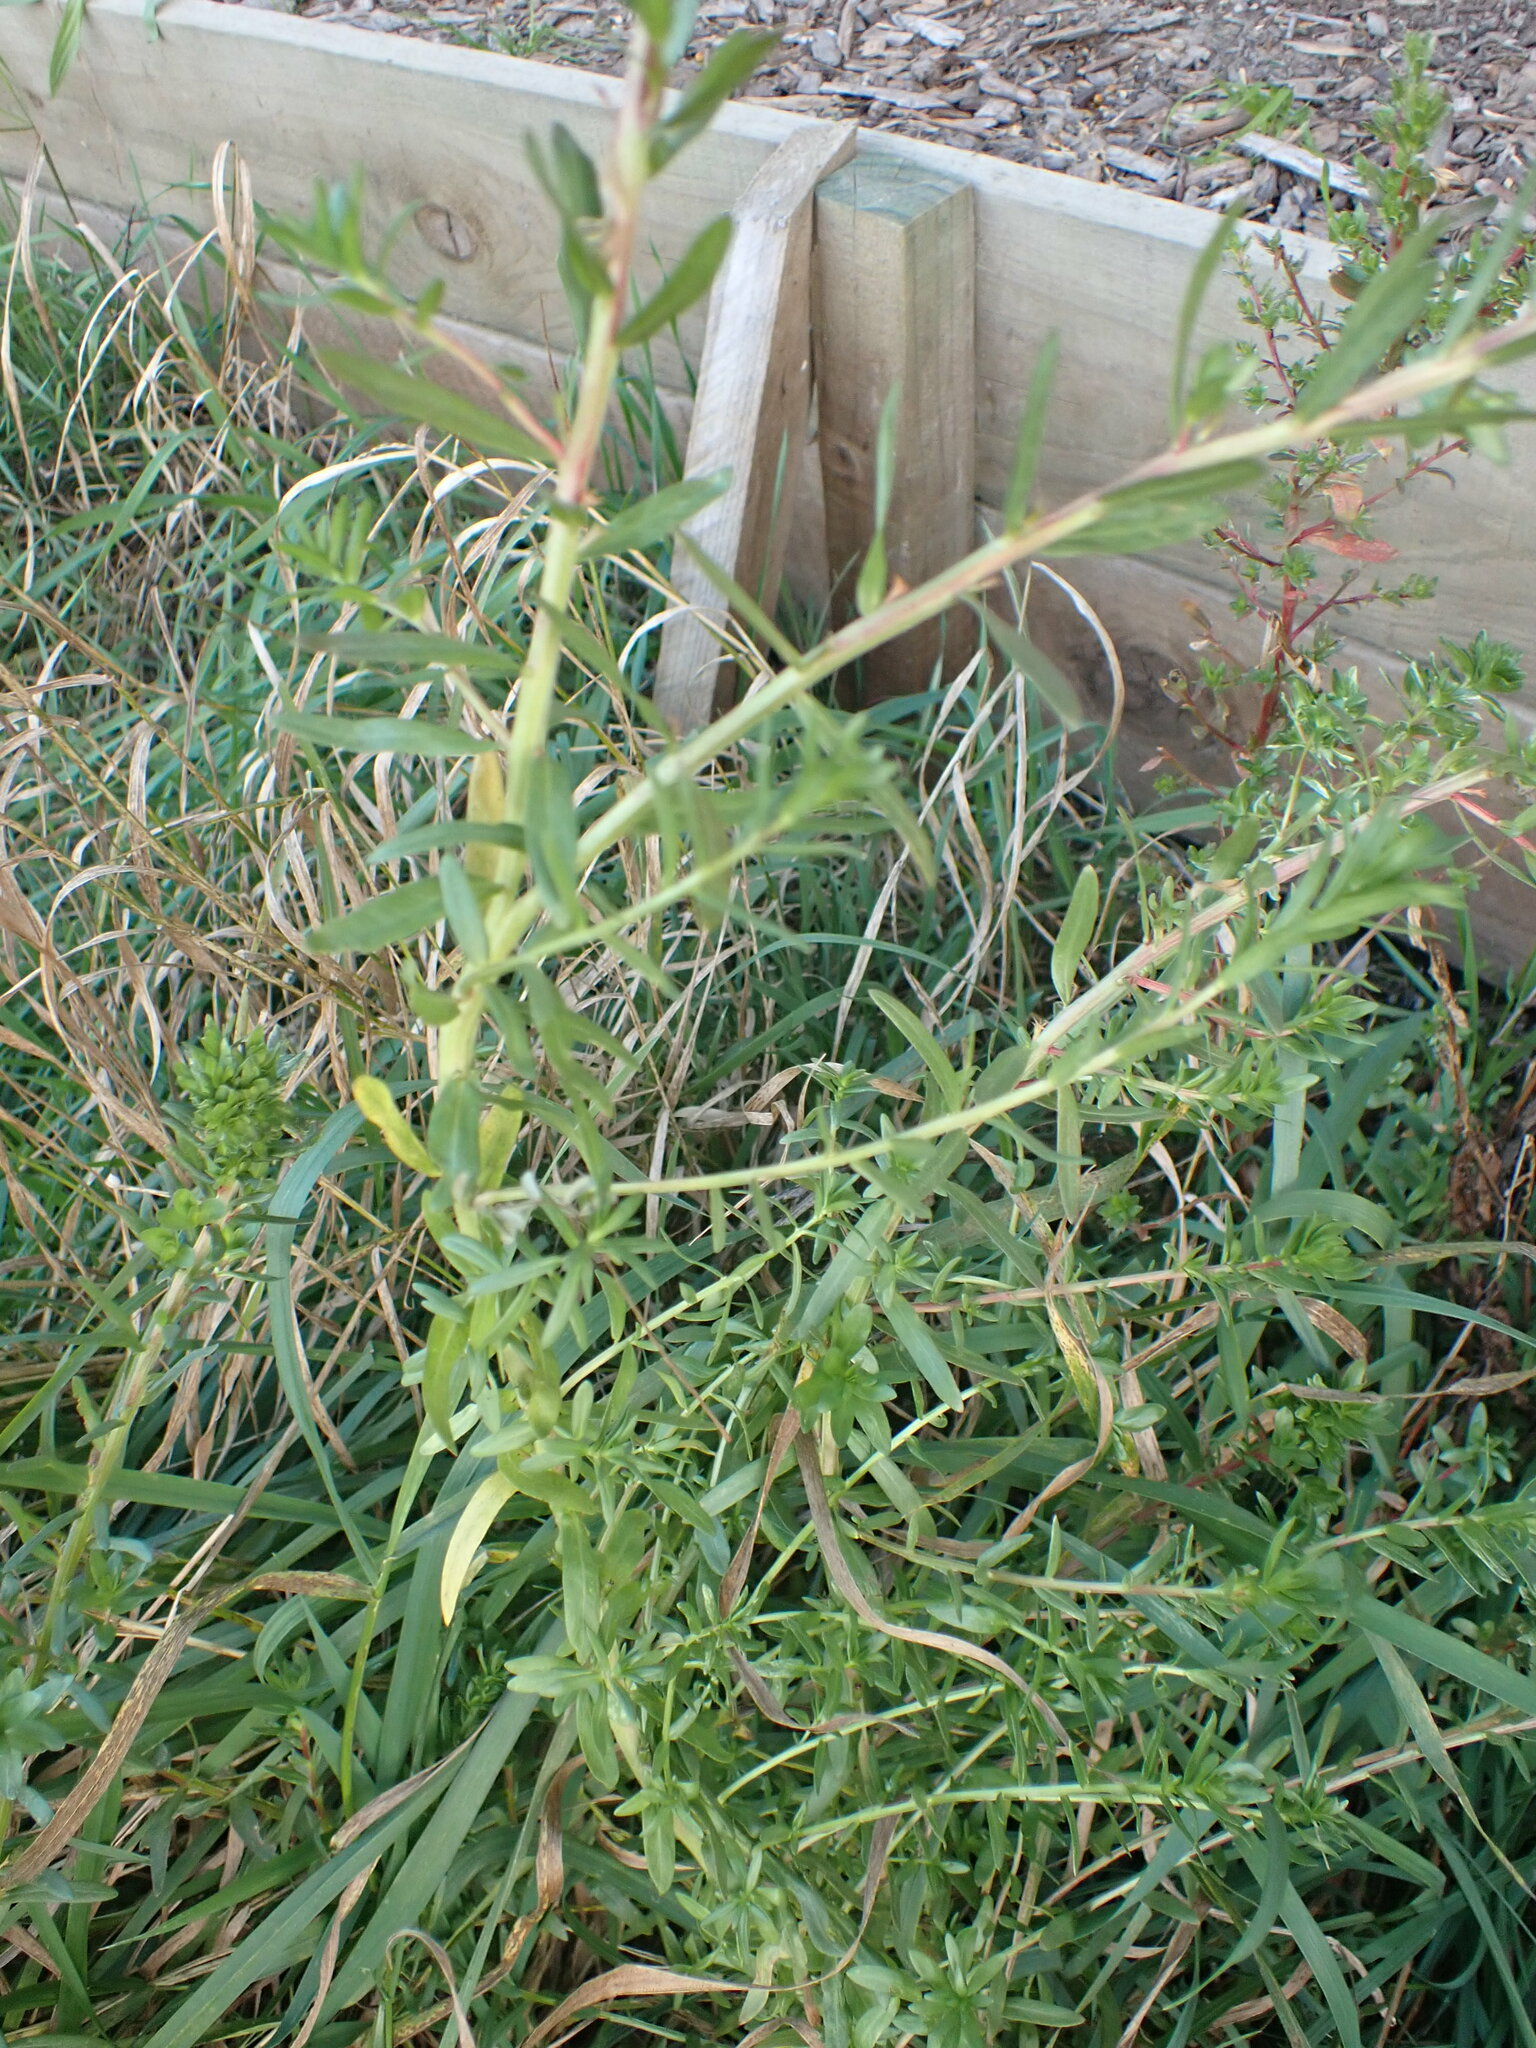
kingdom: Plantae
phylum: Tracheophyta
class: Magnoliopsida
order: Brassicales
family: Resedaceae
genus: Reseda
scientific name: Reseda luteola
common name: Weld
